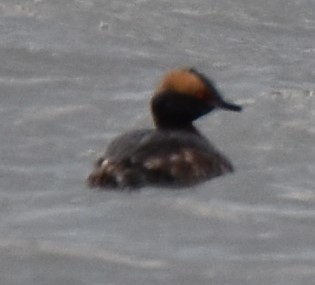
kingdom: Animalia
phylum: Chordata
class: Aves
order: Podicipediformes
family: Podicipedidae
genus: Podiceps
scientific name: Podiceps auritus
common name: Horned grebe
